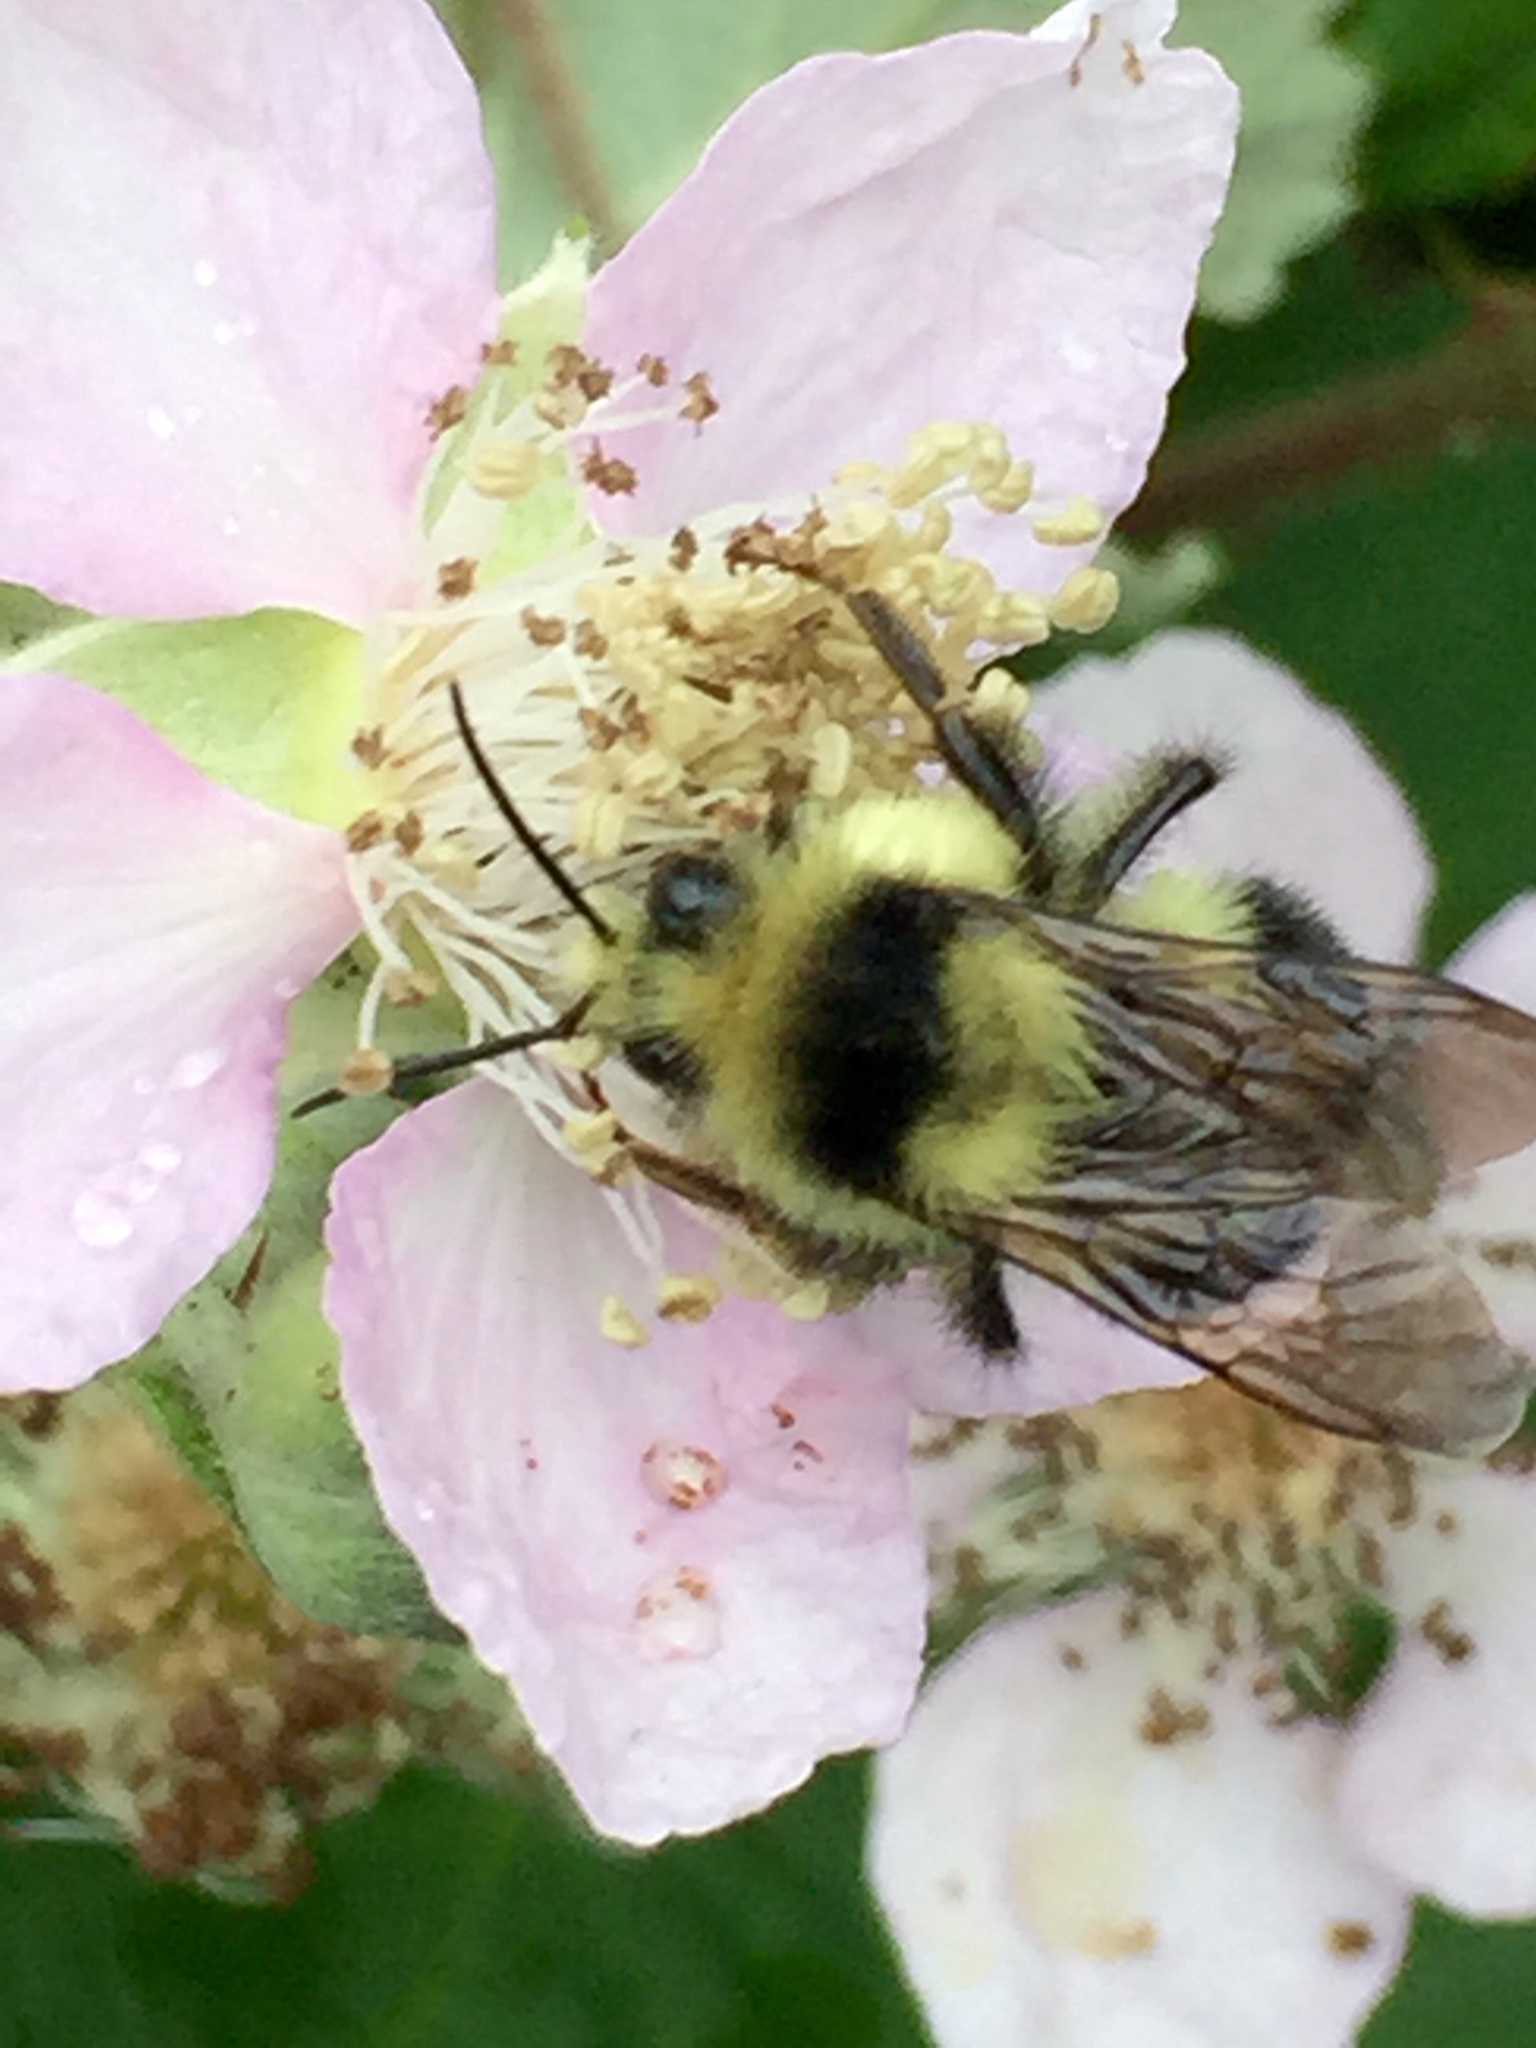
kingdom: Animalia
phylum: Arthropoda
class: Insecta
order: Hymenoptera
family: Apidae
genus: Bombus
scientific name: Bombus melanopygus
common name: Black tail bumble bee
